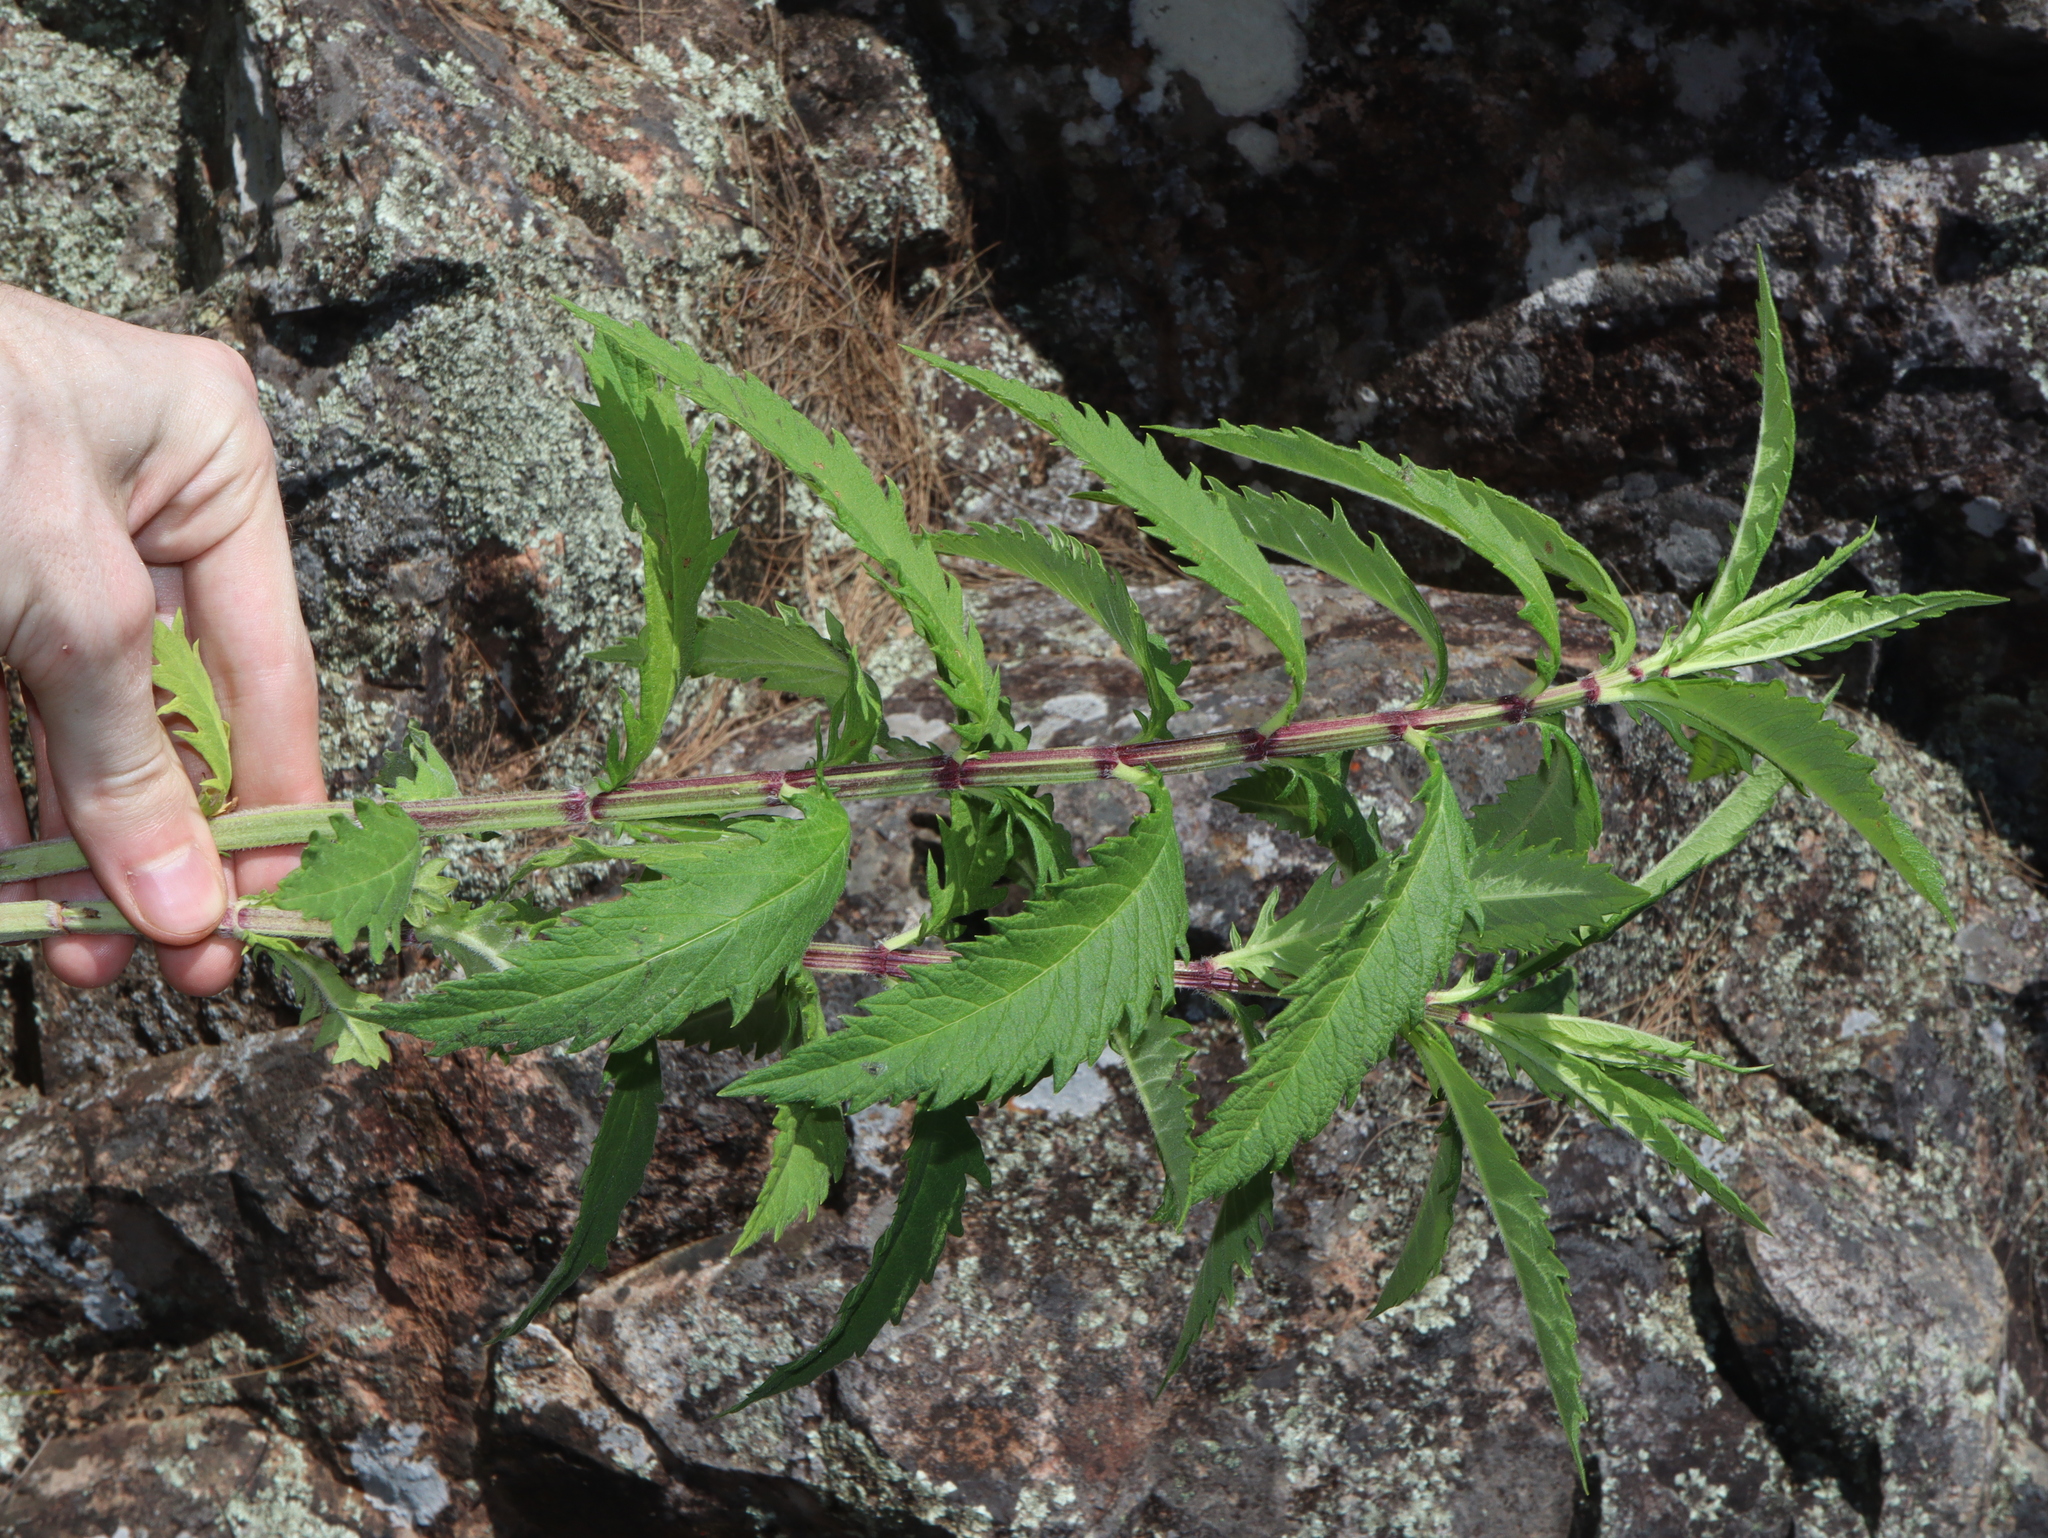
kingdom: Plantae
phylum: Tracheophyta
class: Magnoliopsida
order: Lamiales
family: Lamiaceae
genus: Lycopus
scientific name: Lycopus australis
